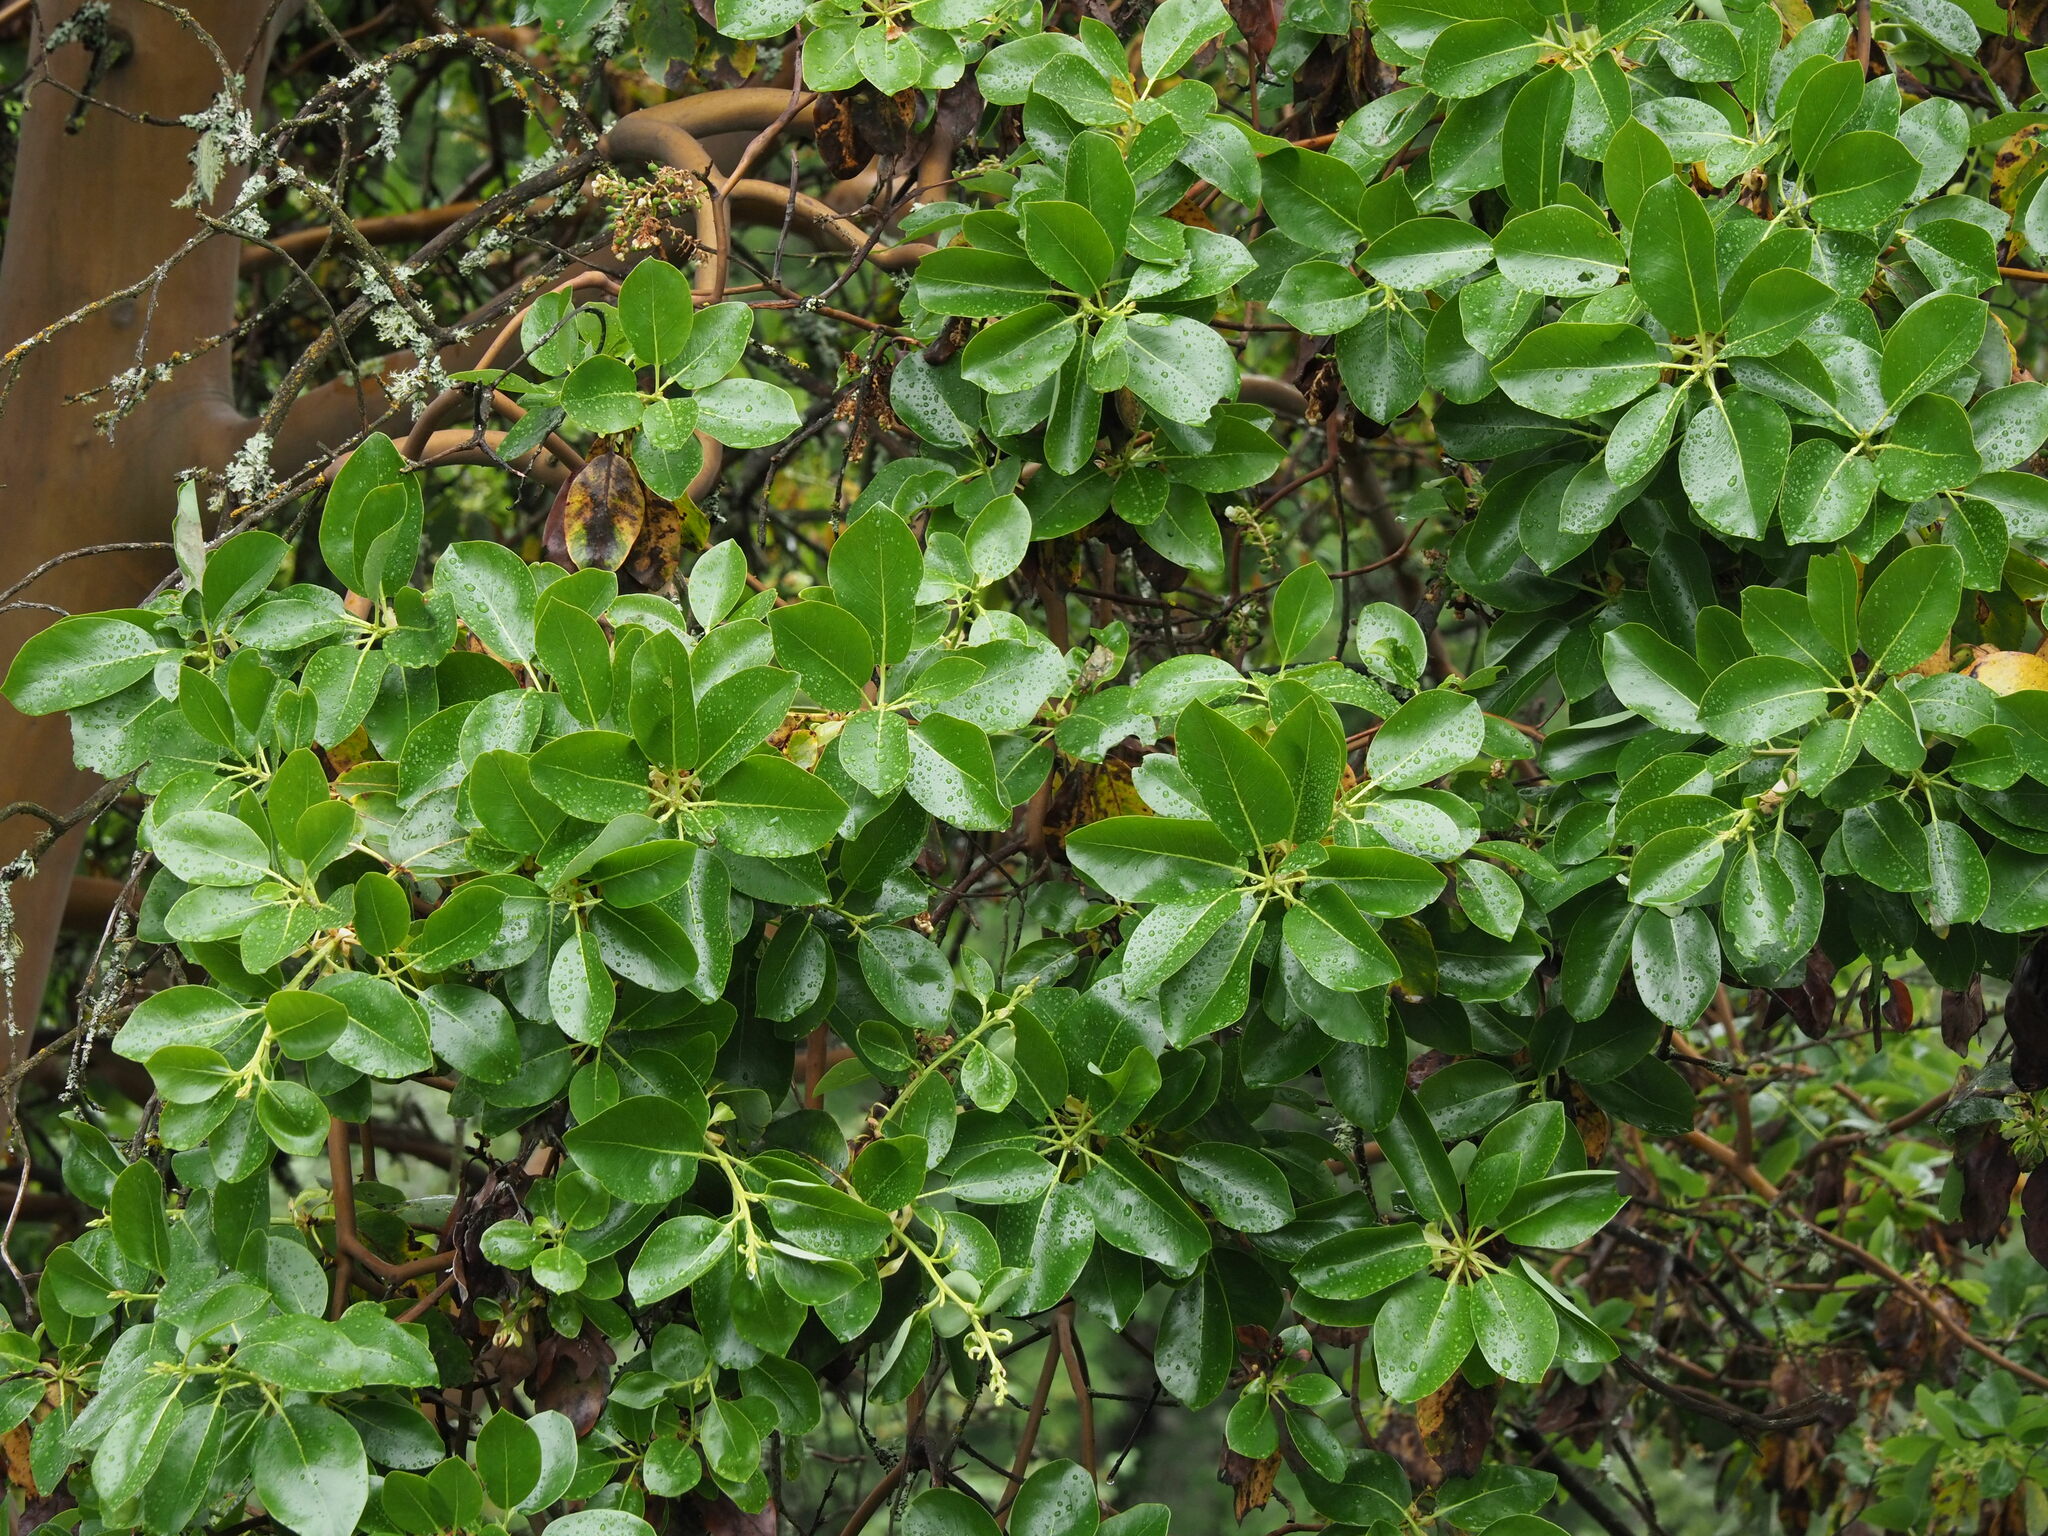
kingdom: Plantae
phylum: Tracheophyta
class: Magnoliopsida
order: Ericales
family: Ericaceae
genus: Arbutus
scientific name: Arbutus menziesii
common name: Pacific madrone
